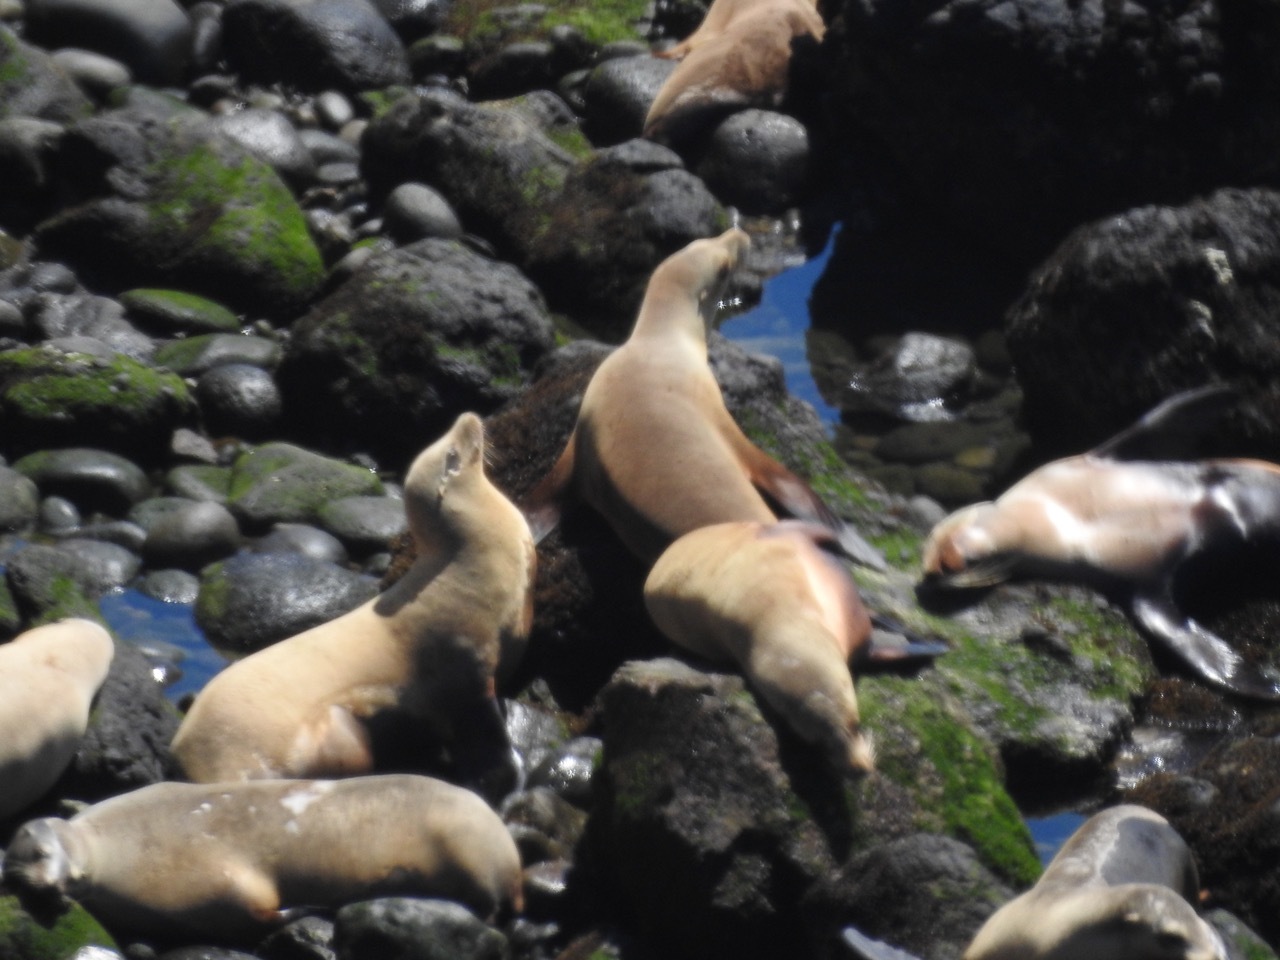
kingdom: Animalia
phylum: Chordata
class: Mammalia
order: Carnivora
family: Otariidae
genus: Zalophus
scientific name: Zalophus californianus
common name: California sea lion
